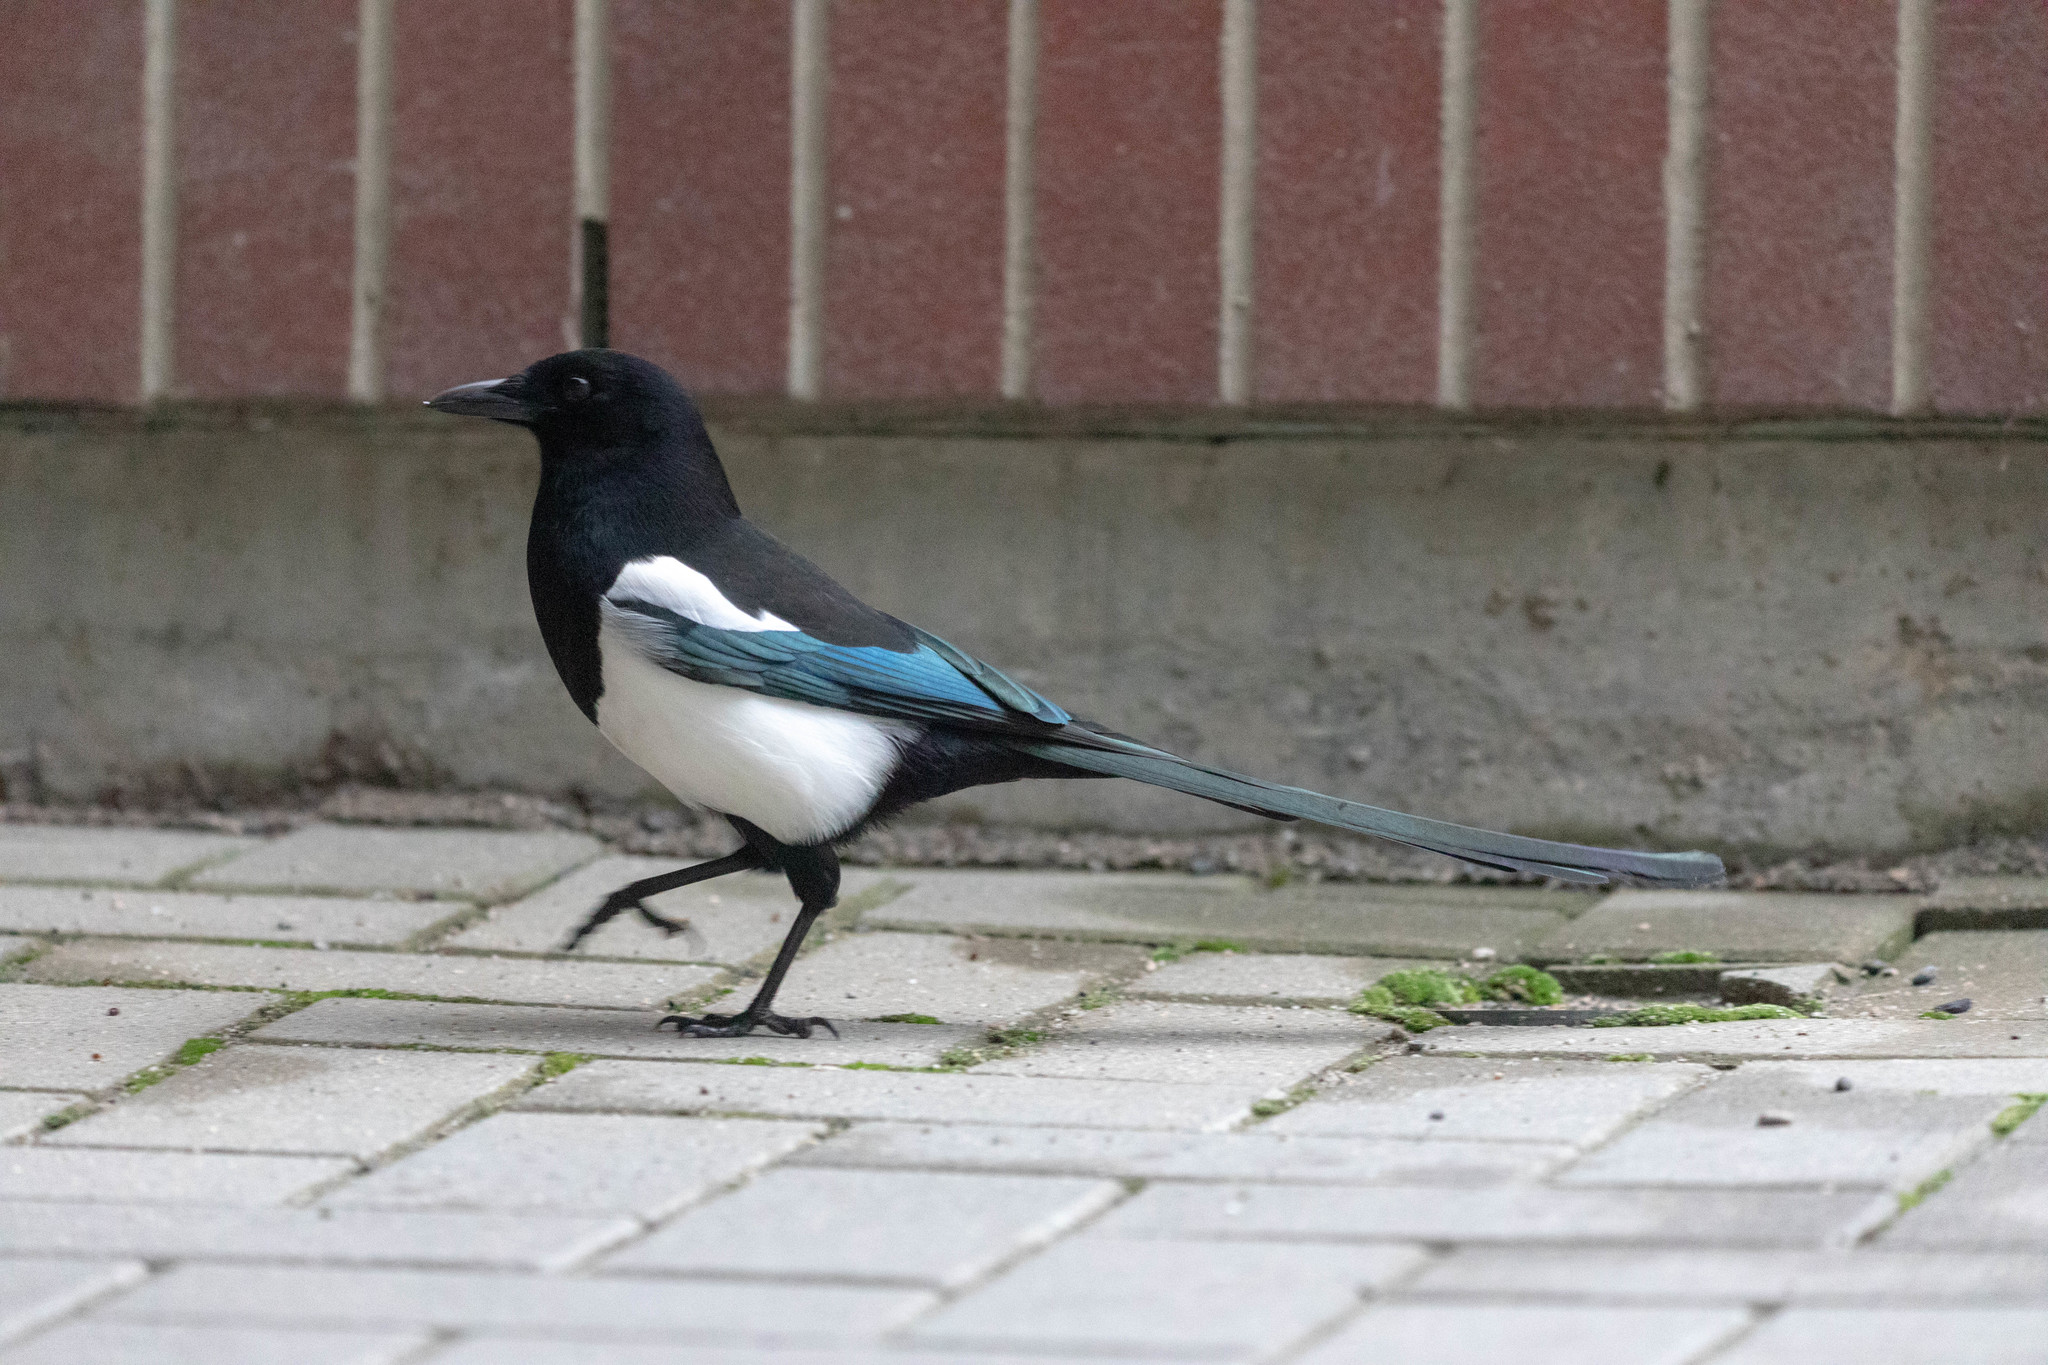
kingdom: Animalia
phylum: Chordata
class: Aves
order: Passeriformes
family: Corvidae
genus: Pica
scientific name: Pica hudsonia
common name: Black-billed magpie
